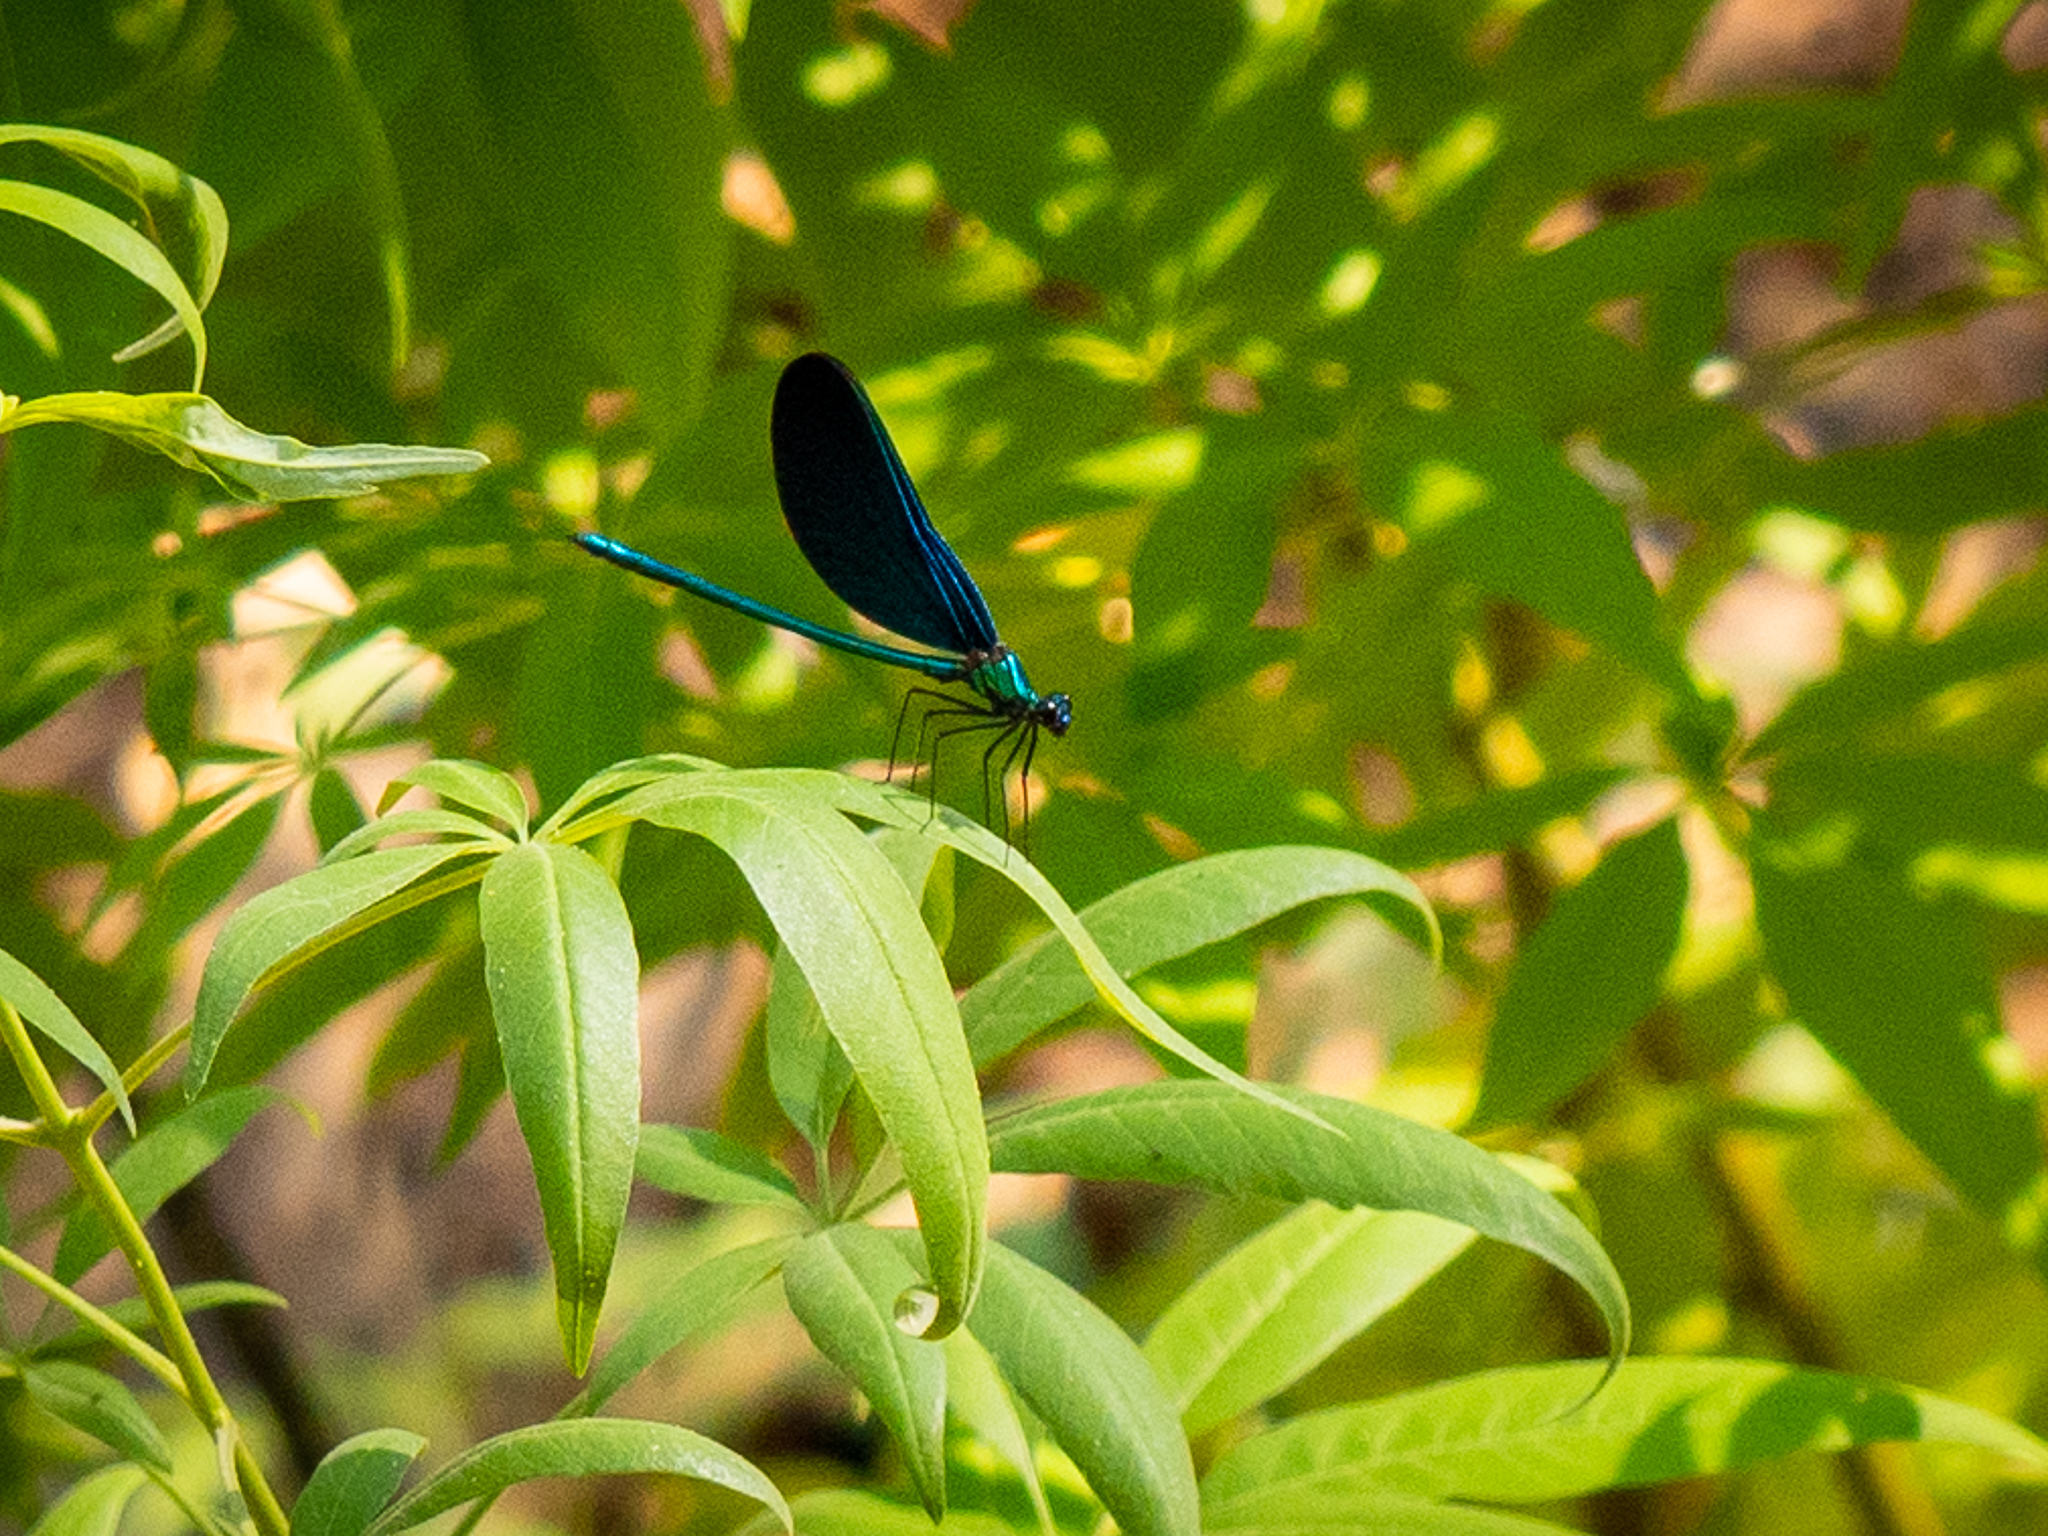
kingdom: Animalia
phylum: Arthropoda
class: Insecta
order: Odonata
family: Calopterygidae
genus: Calopteryx
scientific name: Calopteryx virgo
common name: Beautiful demoiselle
